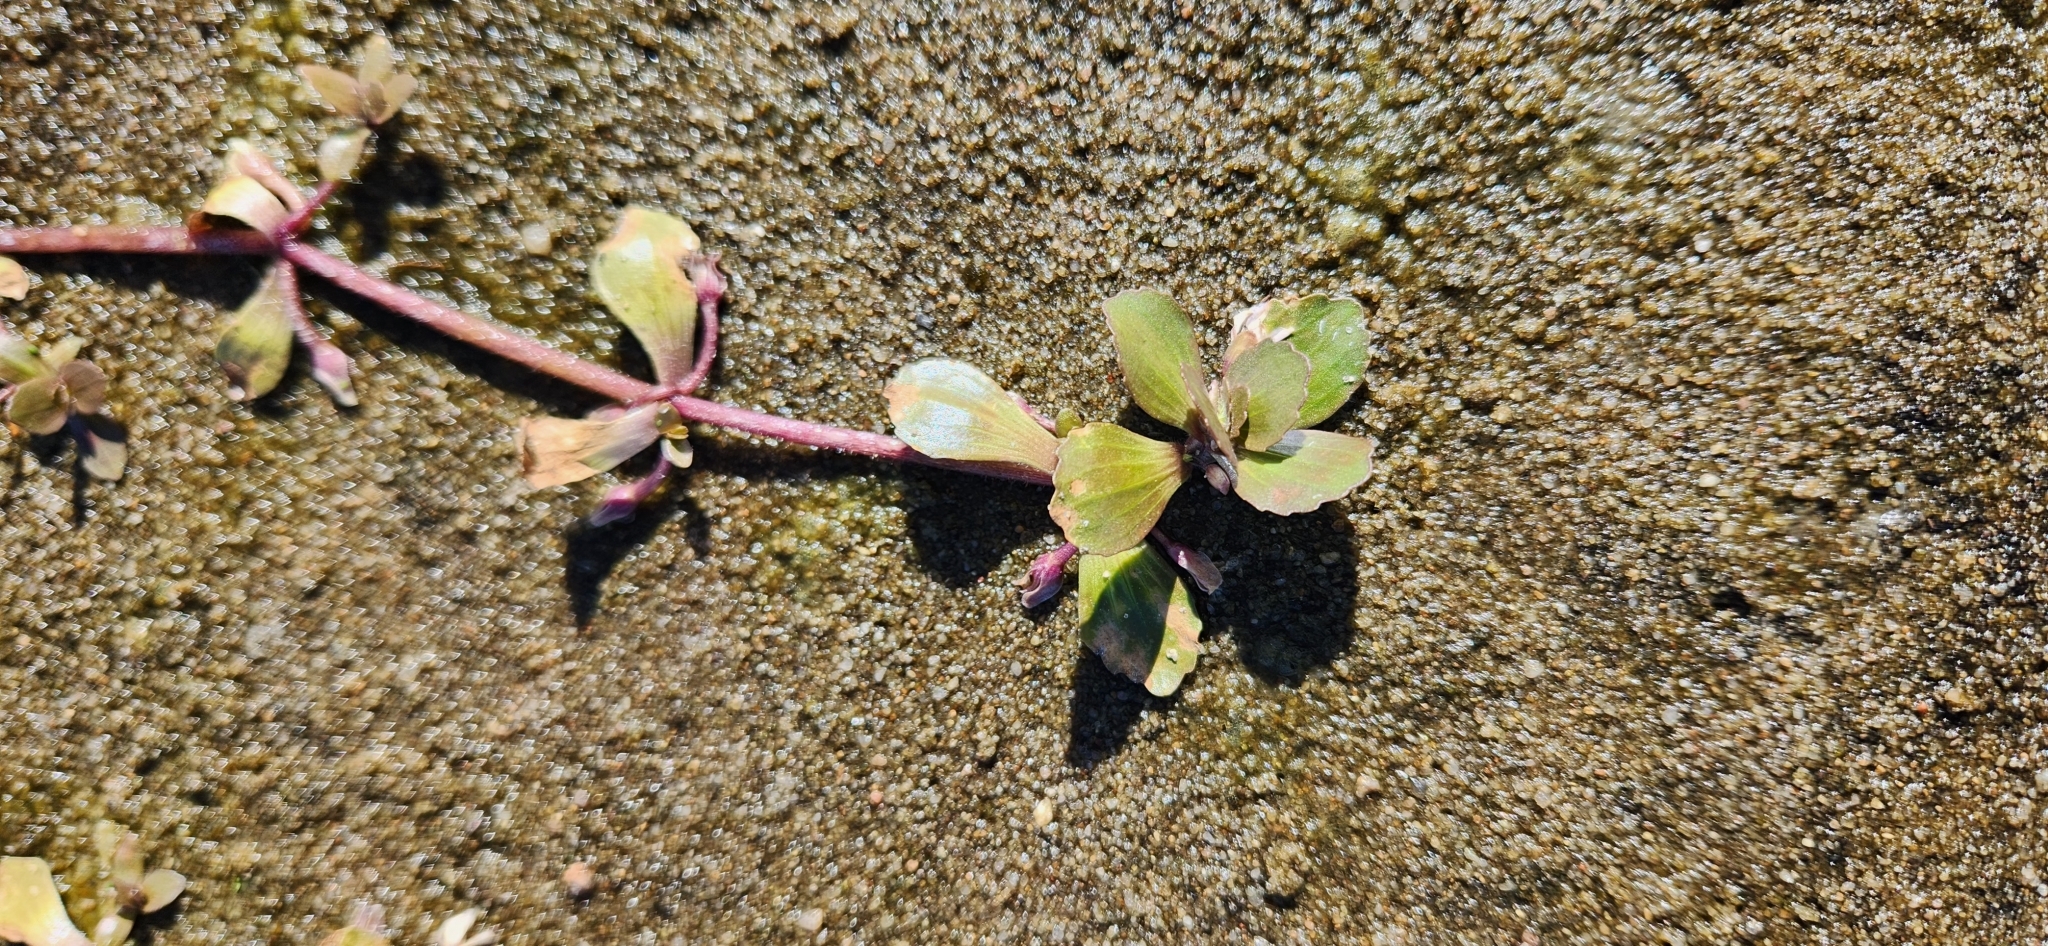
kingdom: Plantae
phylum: Tracheophyta
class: Magnoliopsida
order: Lamiales
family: Plantaginaceae
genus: Bacopa
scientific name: Bacopa egensis
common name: Brazilian waterhyssop
